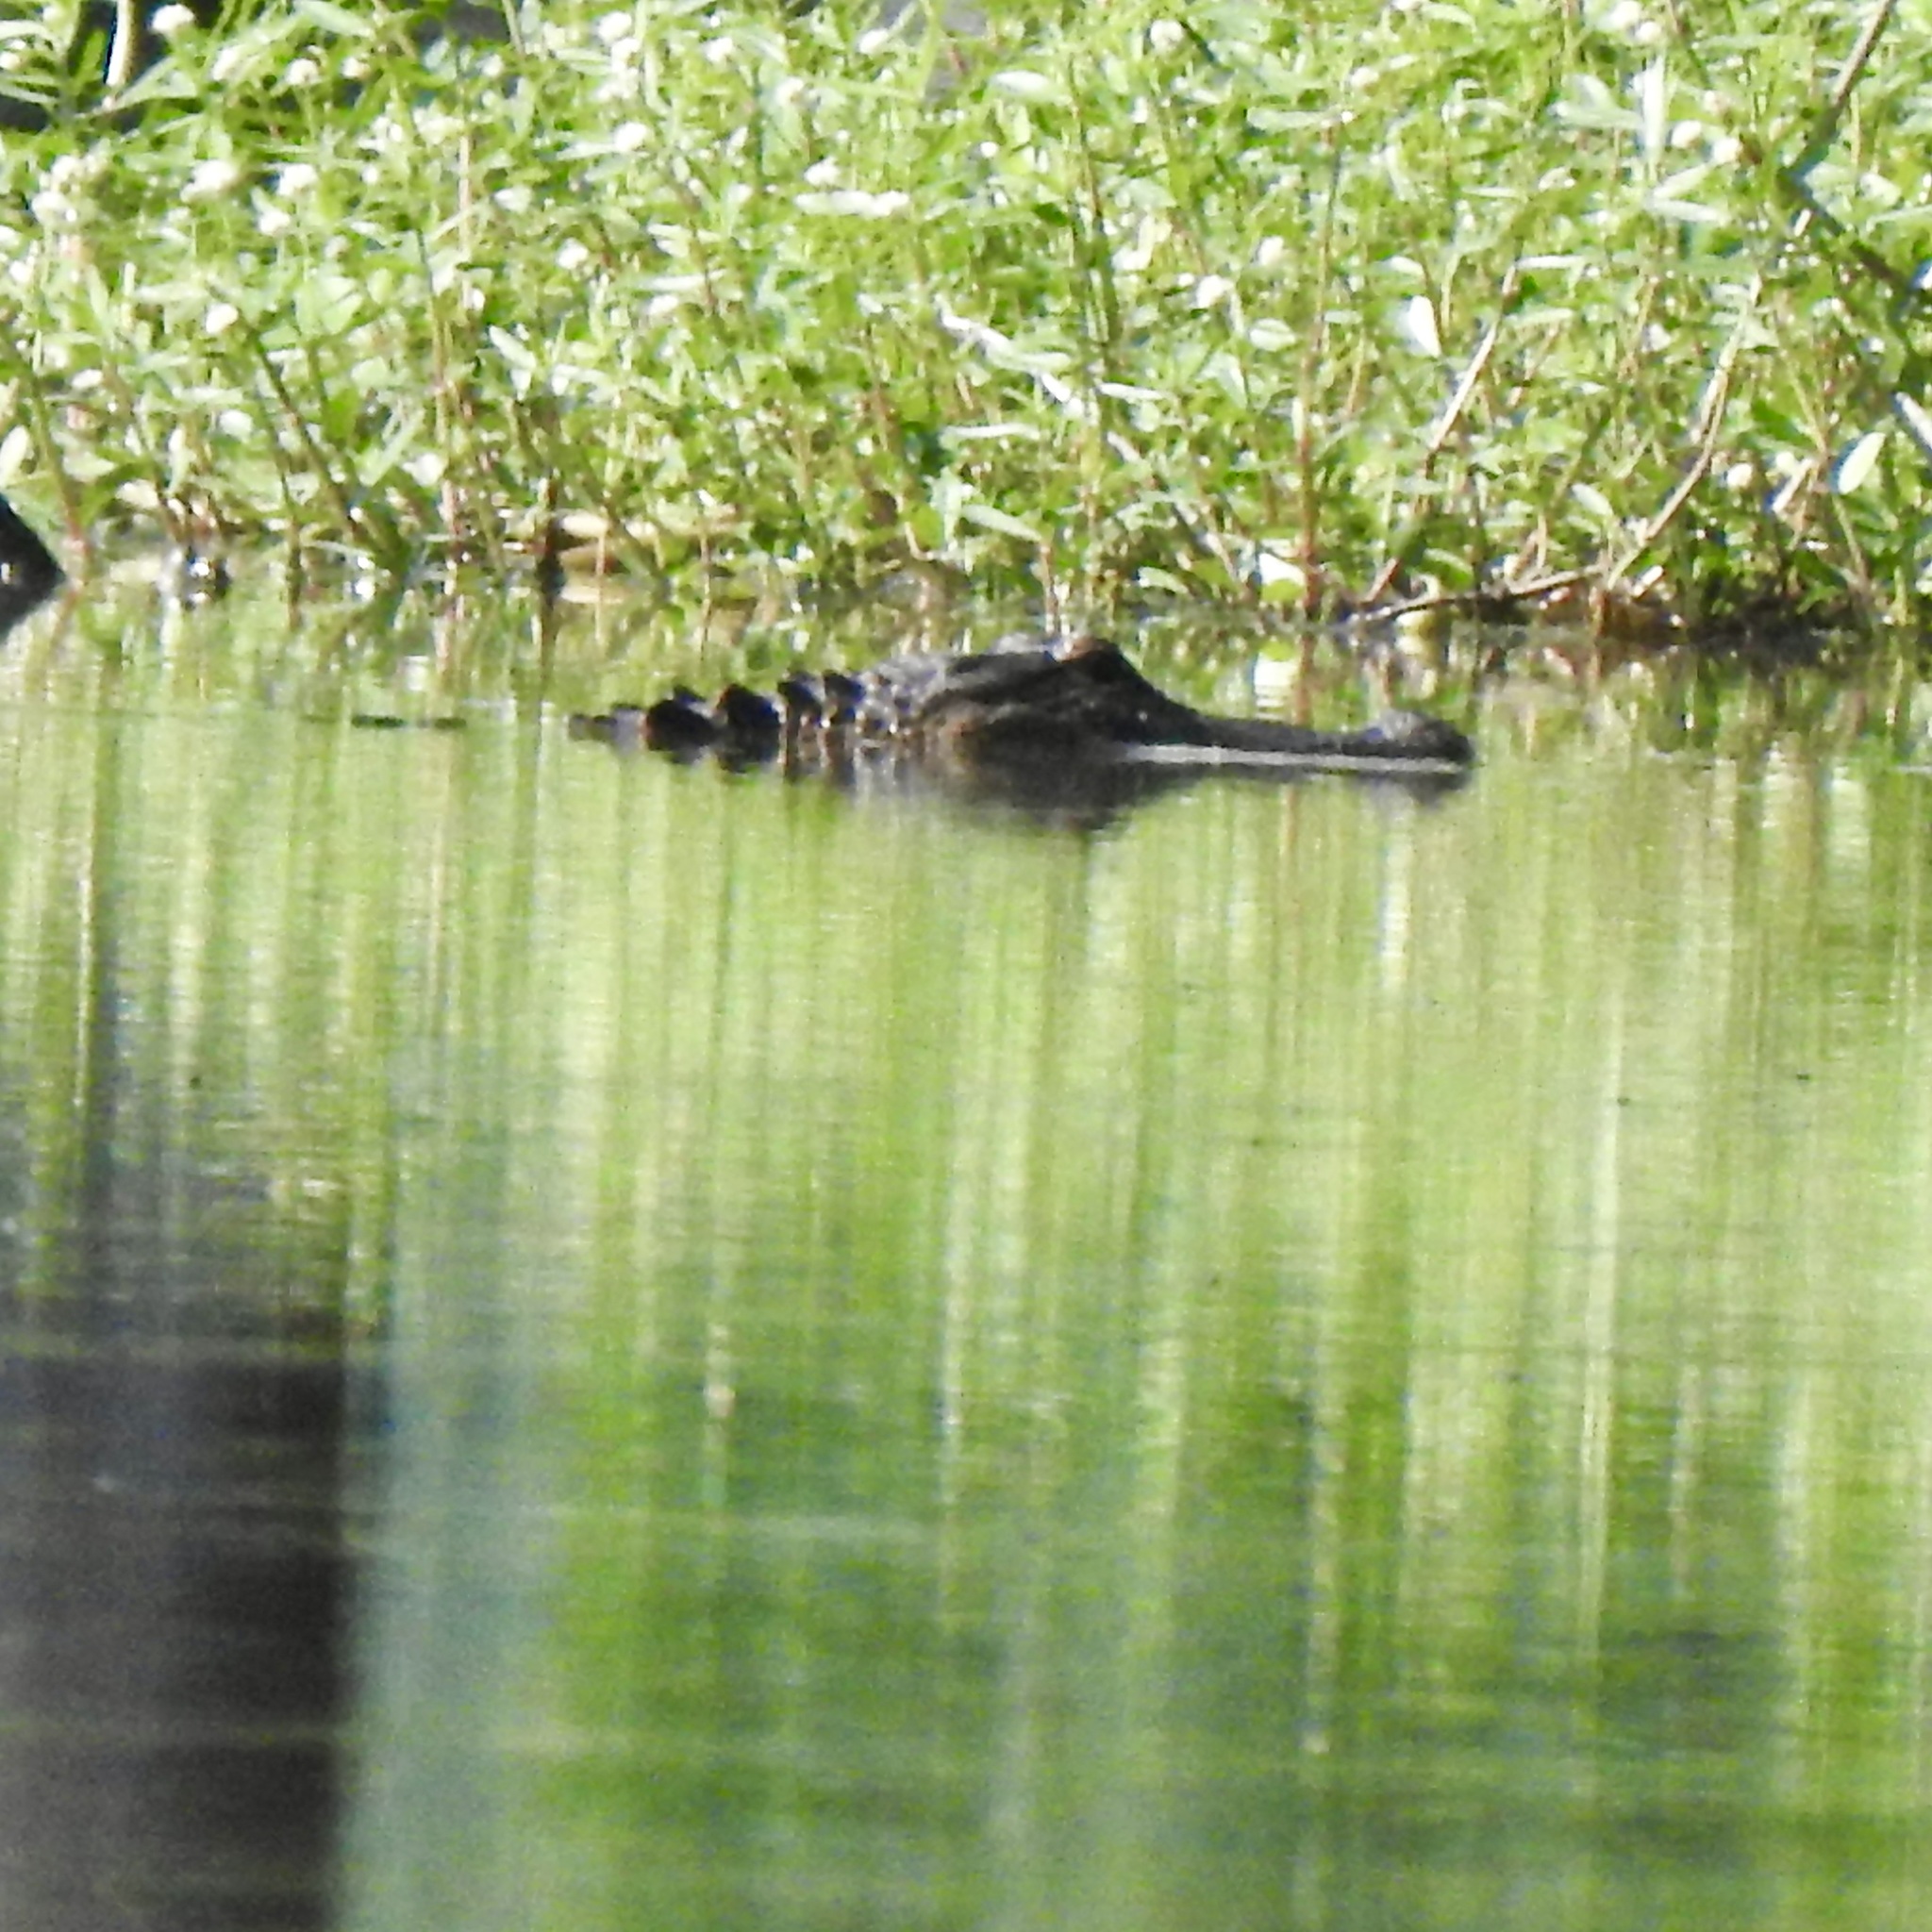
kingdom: Animalia
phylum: Chordata
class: Crocodylia
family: Alligatoridae
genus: Alligator
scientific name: Alligator mississippiensis
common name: American alligator
